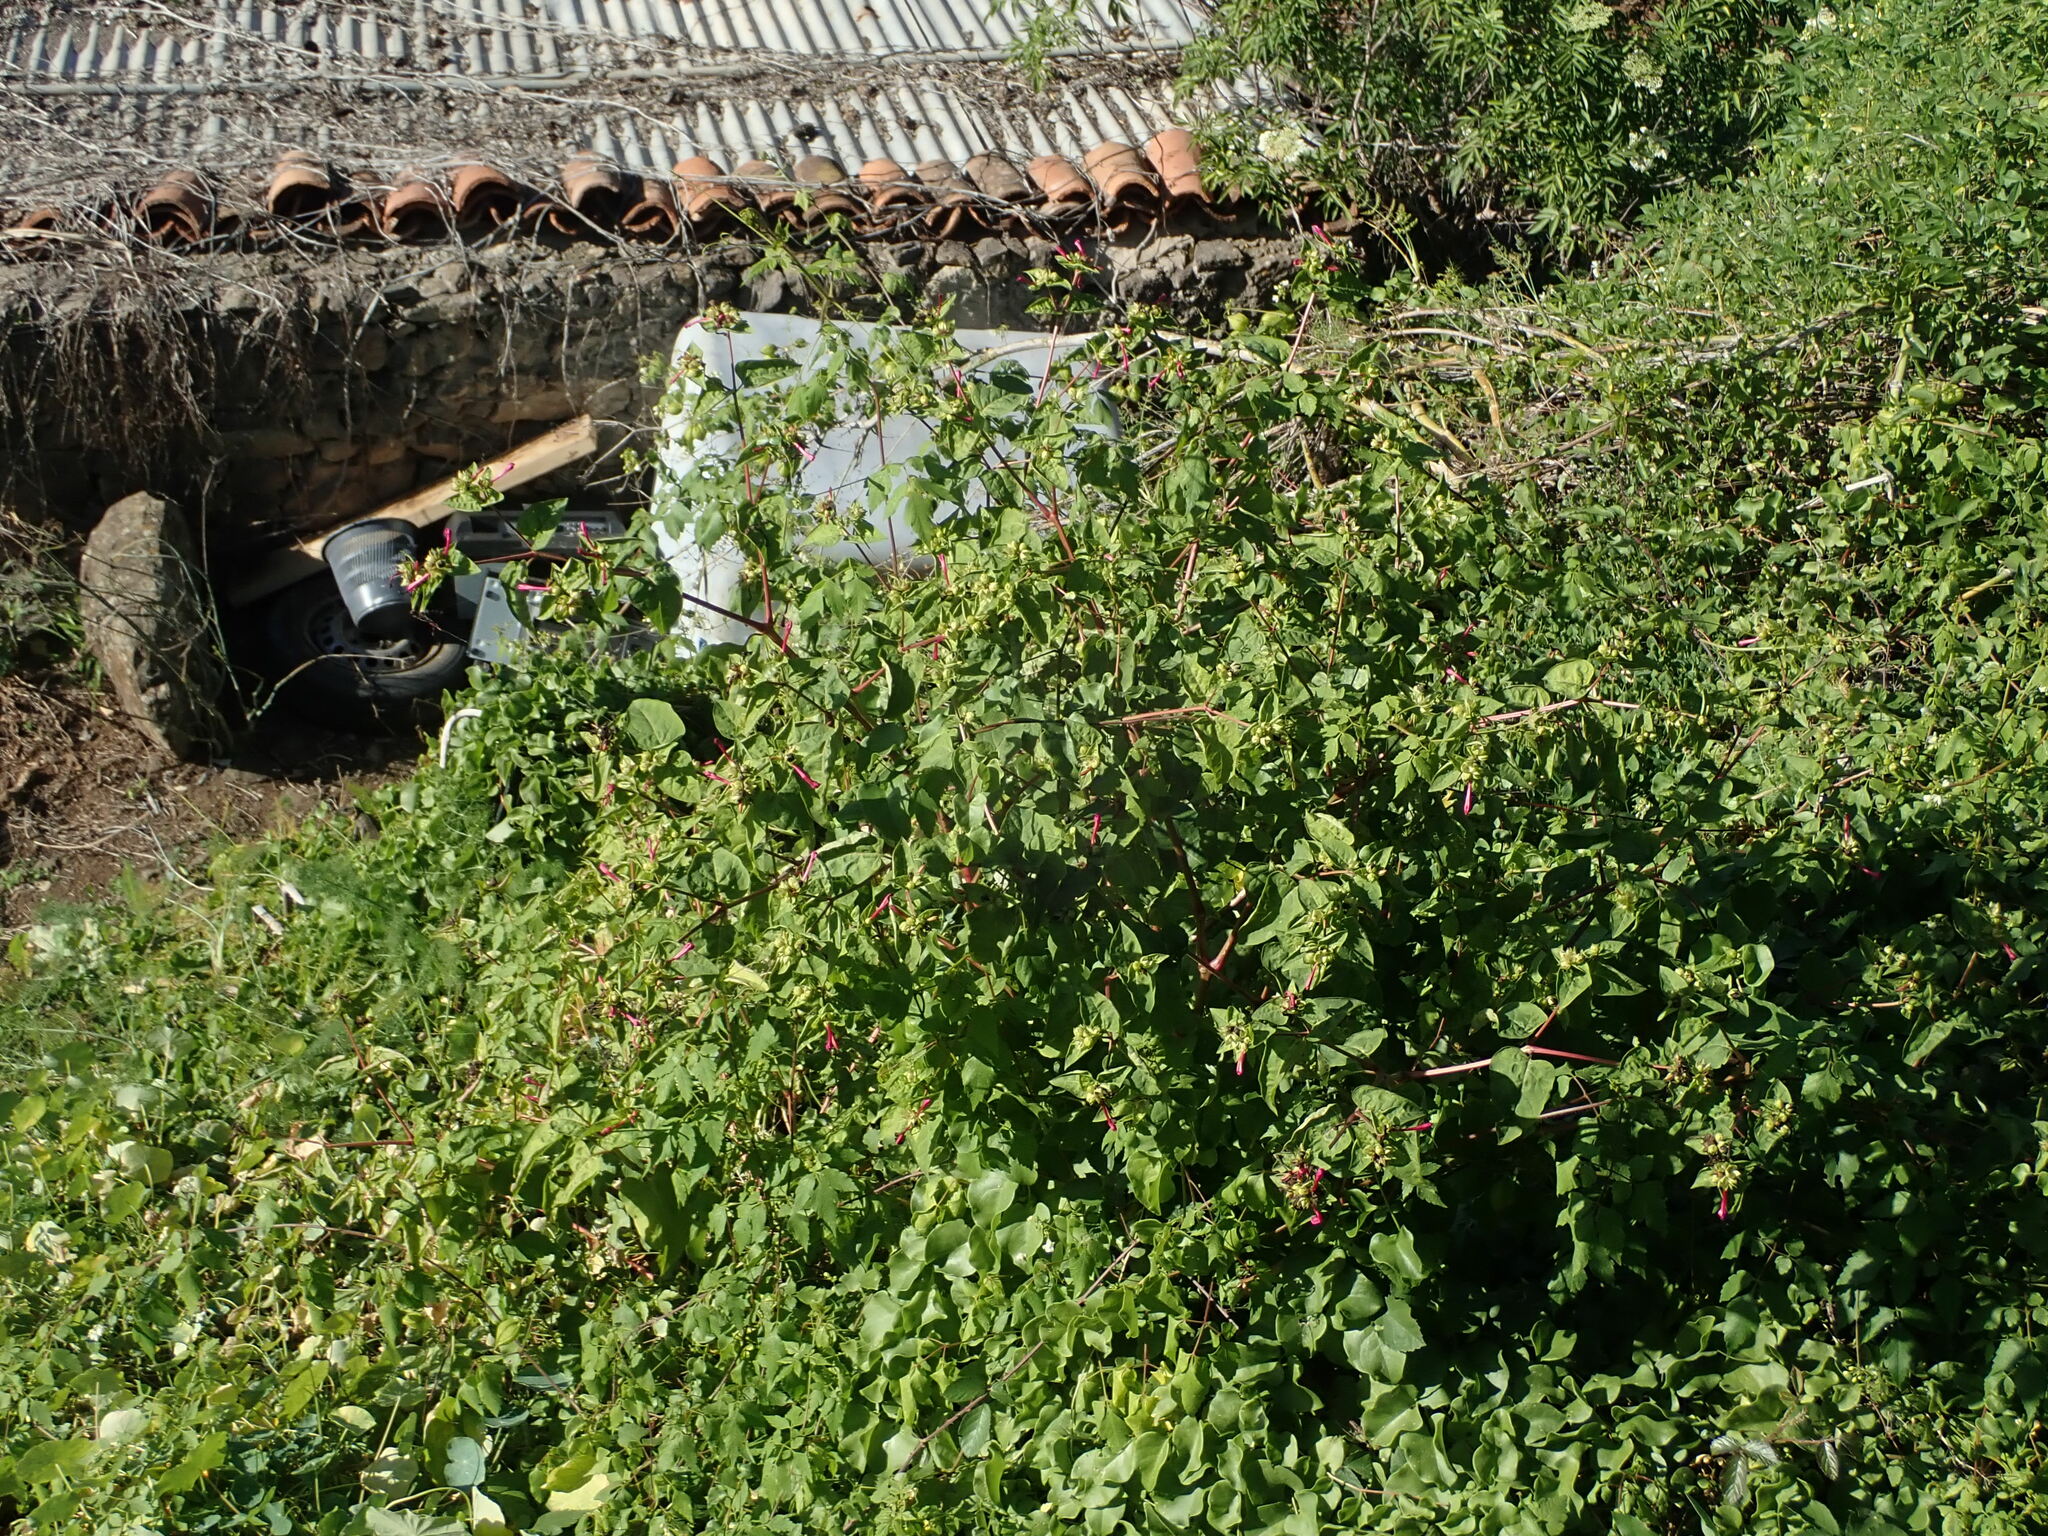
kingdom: Plantae
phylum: Tracheophyta
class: Magnoliopsida
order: Caryophyllales
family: Nyctaginaceae
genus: Mirabilis
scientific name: Mirabilis jalapa
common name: Marvel-of-peru
